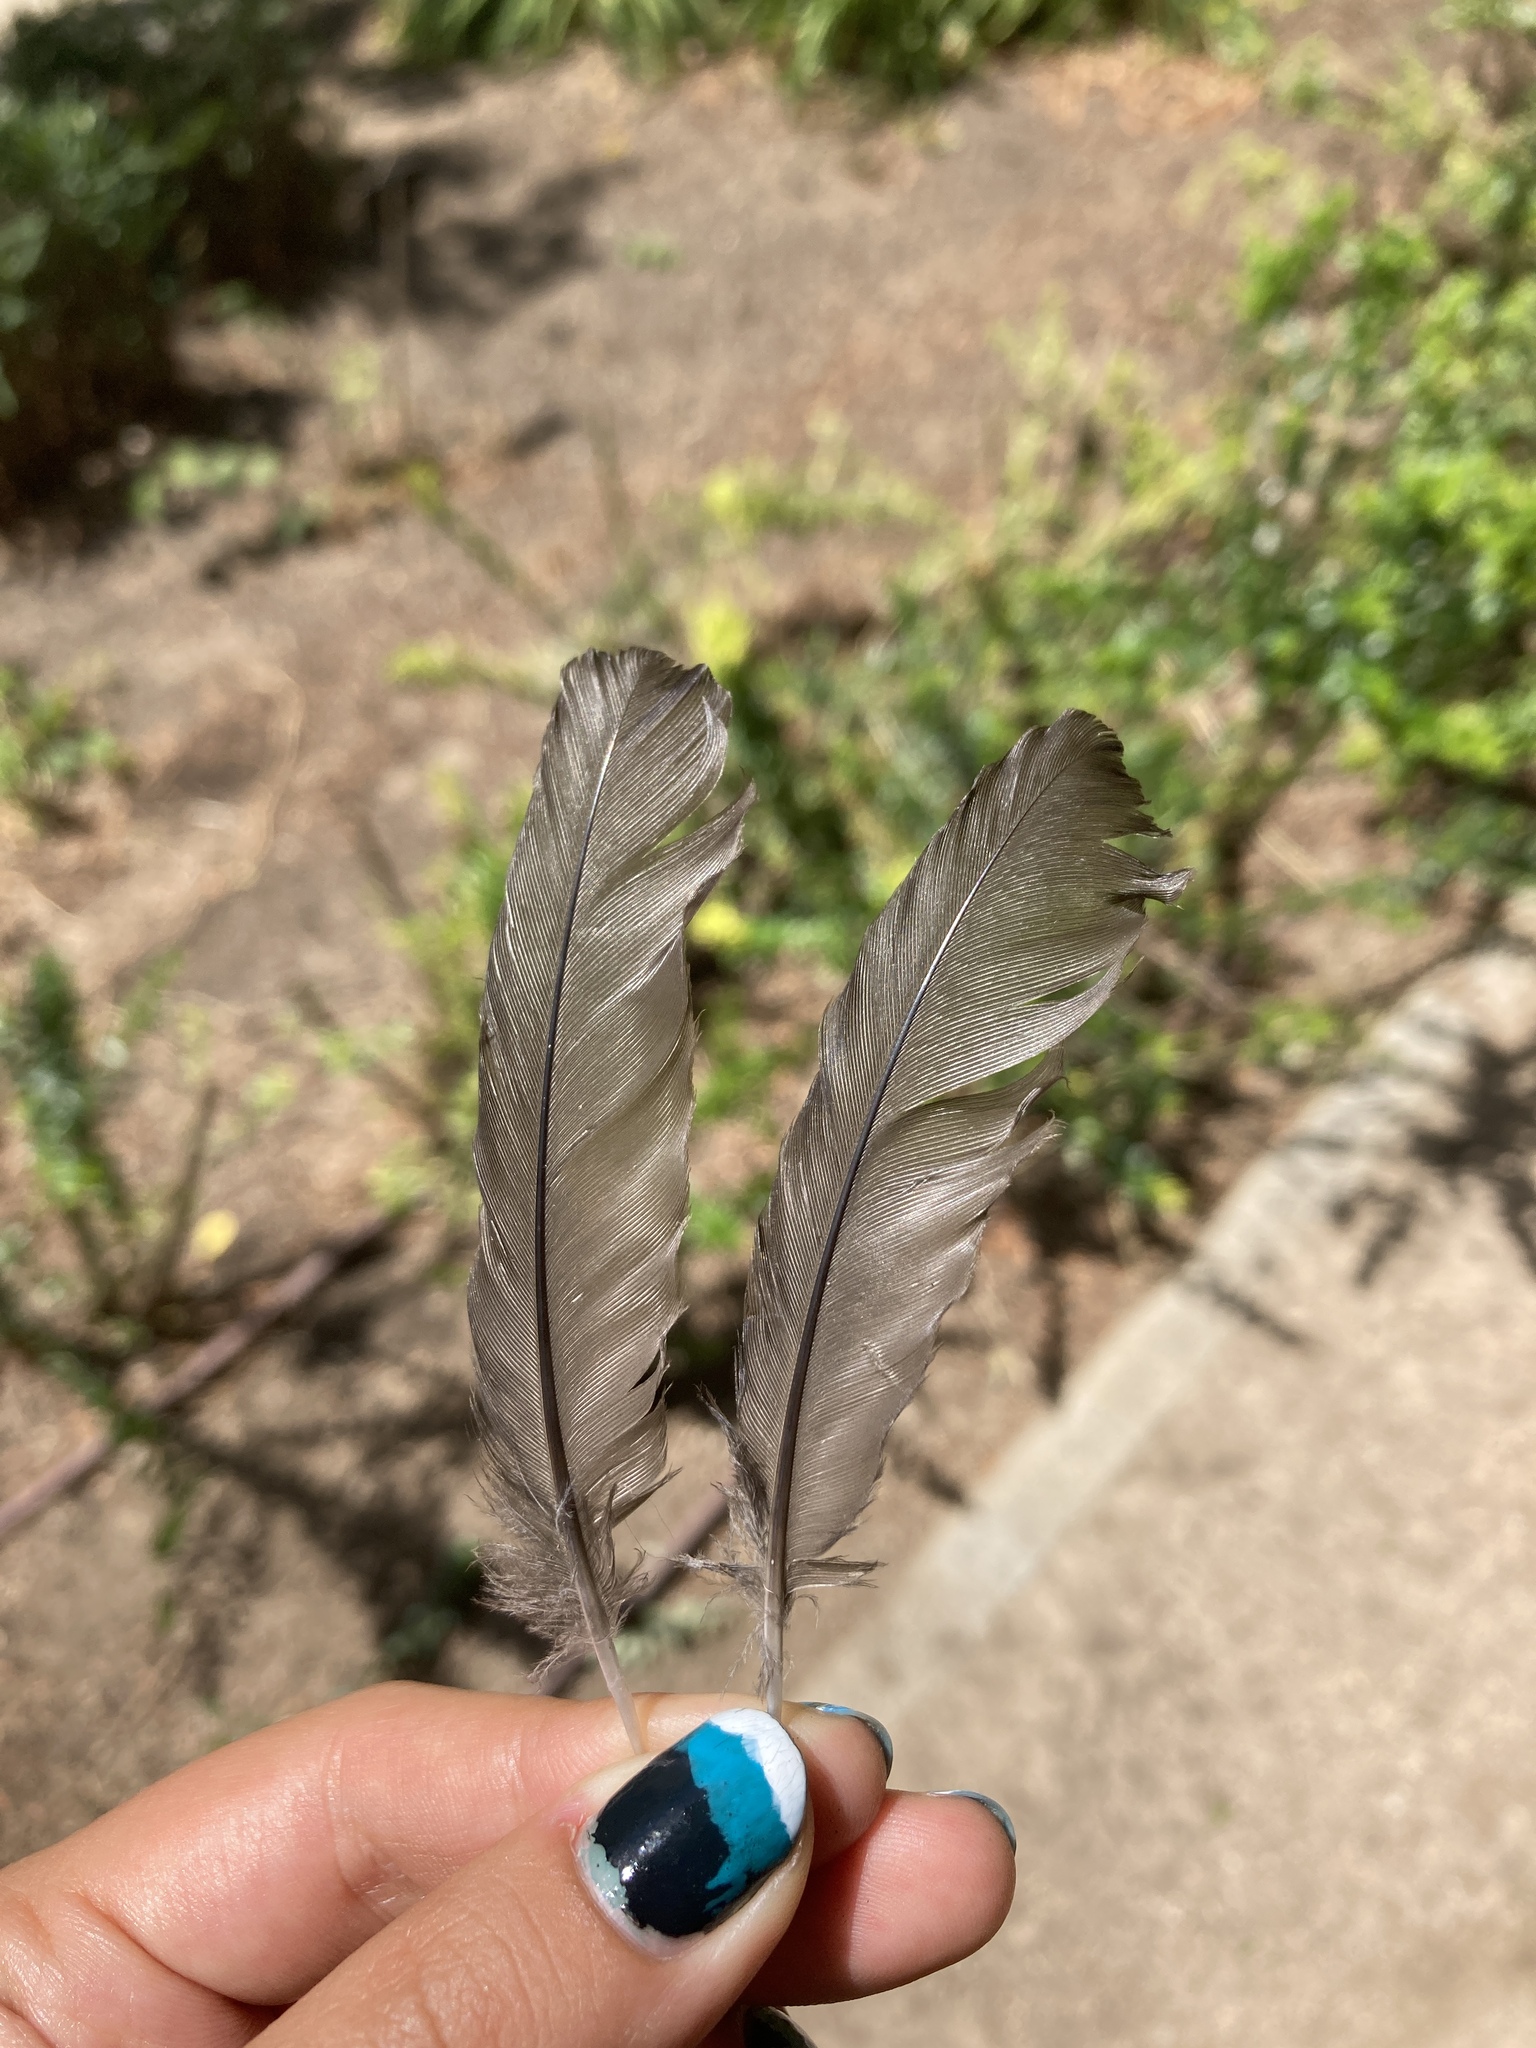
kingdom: Animalia
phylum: Chordata
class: Aves
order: Passeriformes
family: Turdidae
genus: Turdus
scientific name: Turdus merula
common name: Common blackbird
